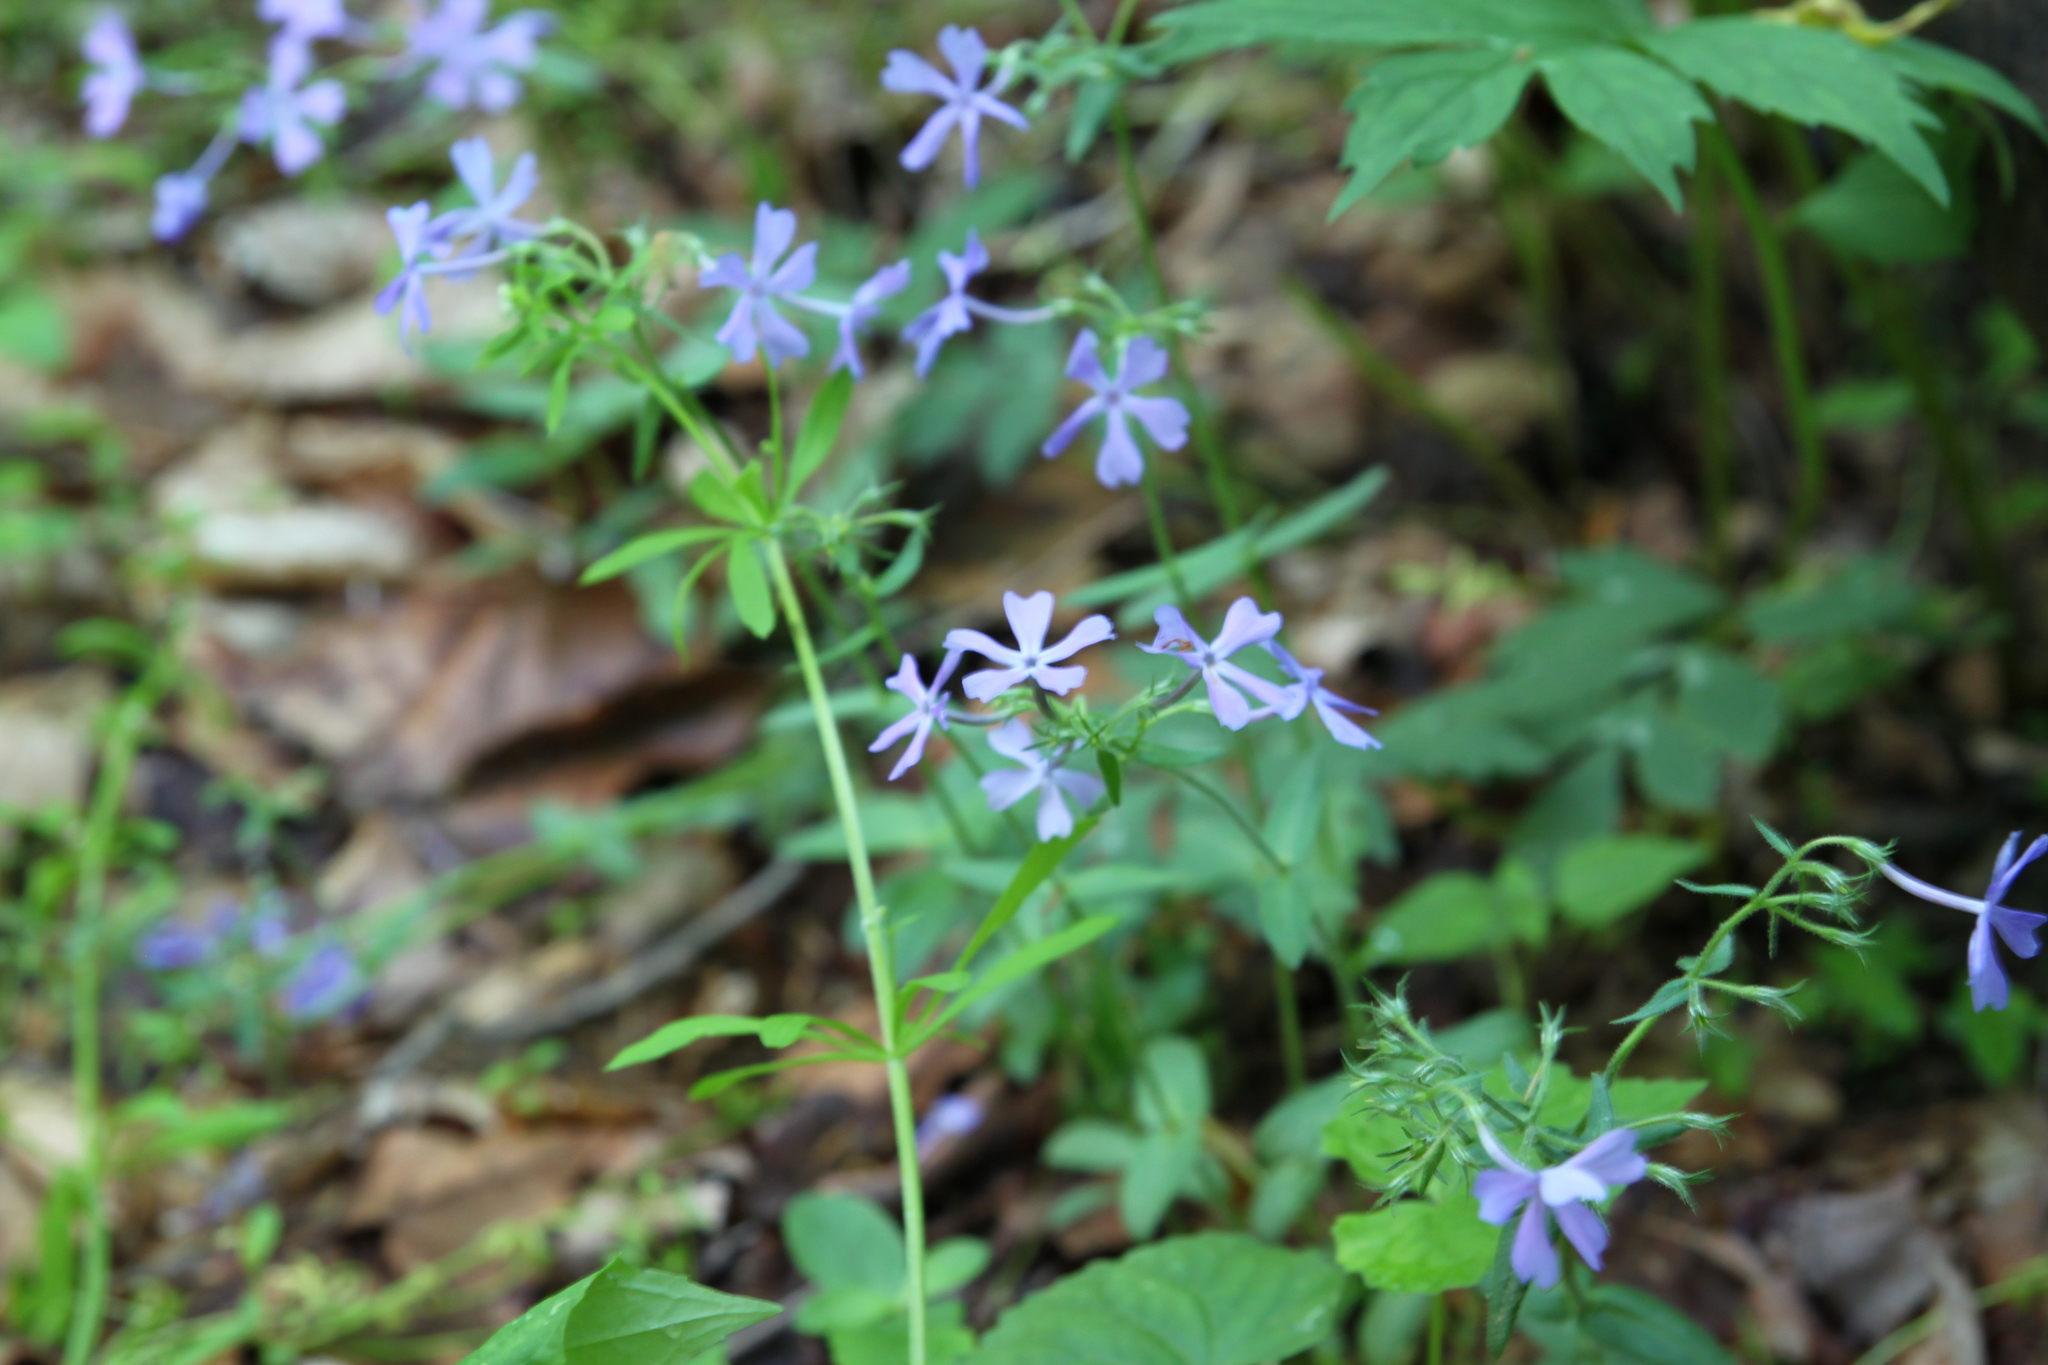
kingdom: Plantae
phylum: Tracheophyta
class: Magnoliopsida
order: Ericales
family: Polemoniaceae
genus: Phlox
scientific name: Phlox divaricata
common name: Blue phlox
